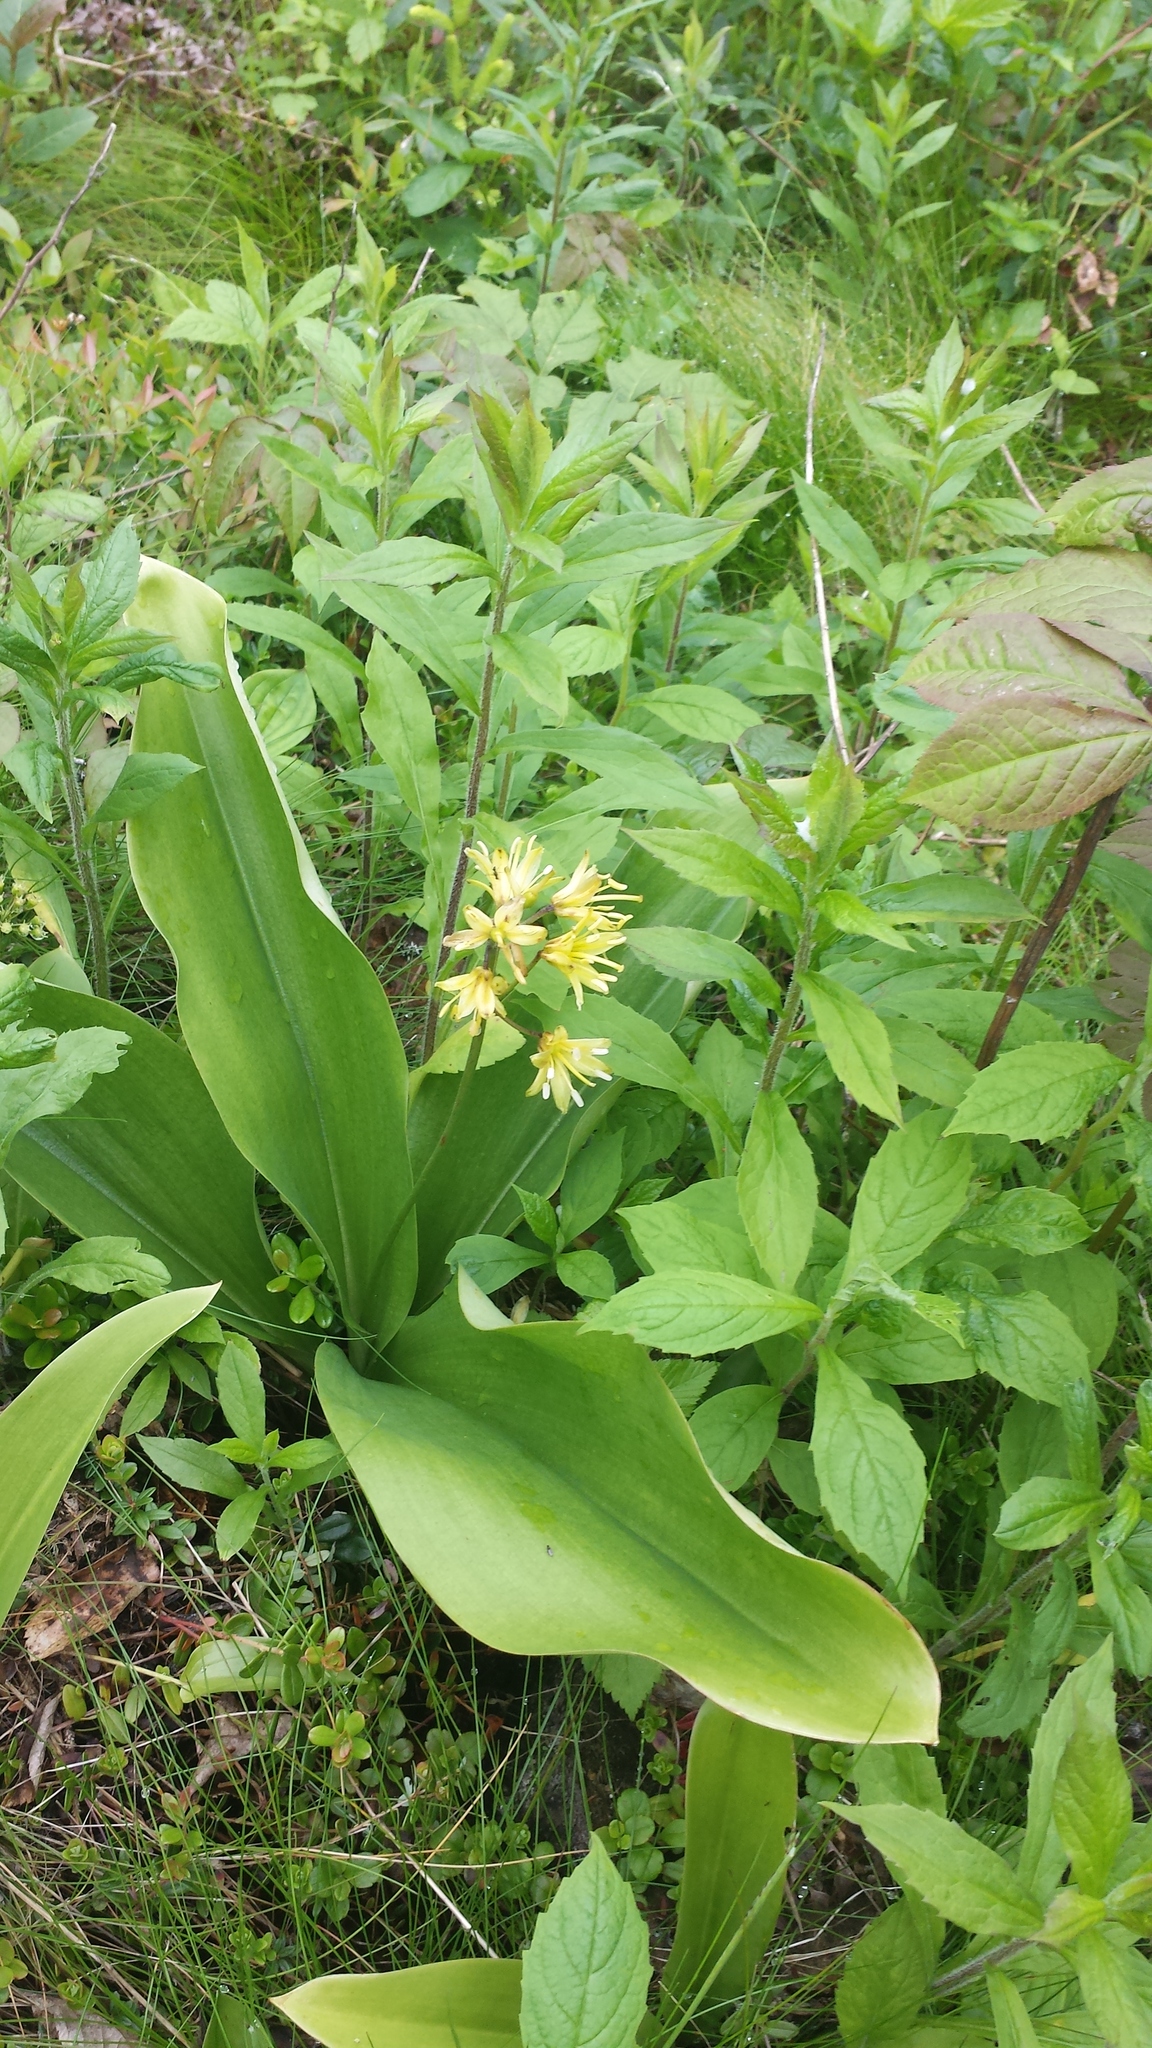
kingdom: Plantae
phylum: Tracheophyta
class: Liliopsida
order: Liliales
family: Liliaceae
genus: Clintonia
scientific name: Clintonia borealis
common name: Yellow clintonia
